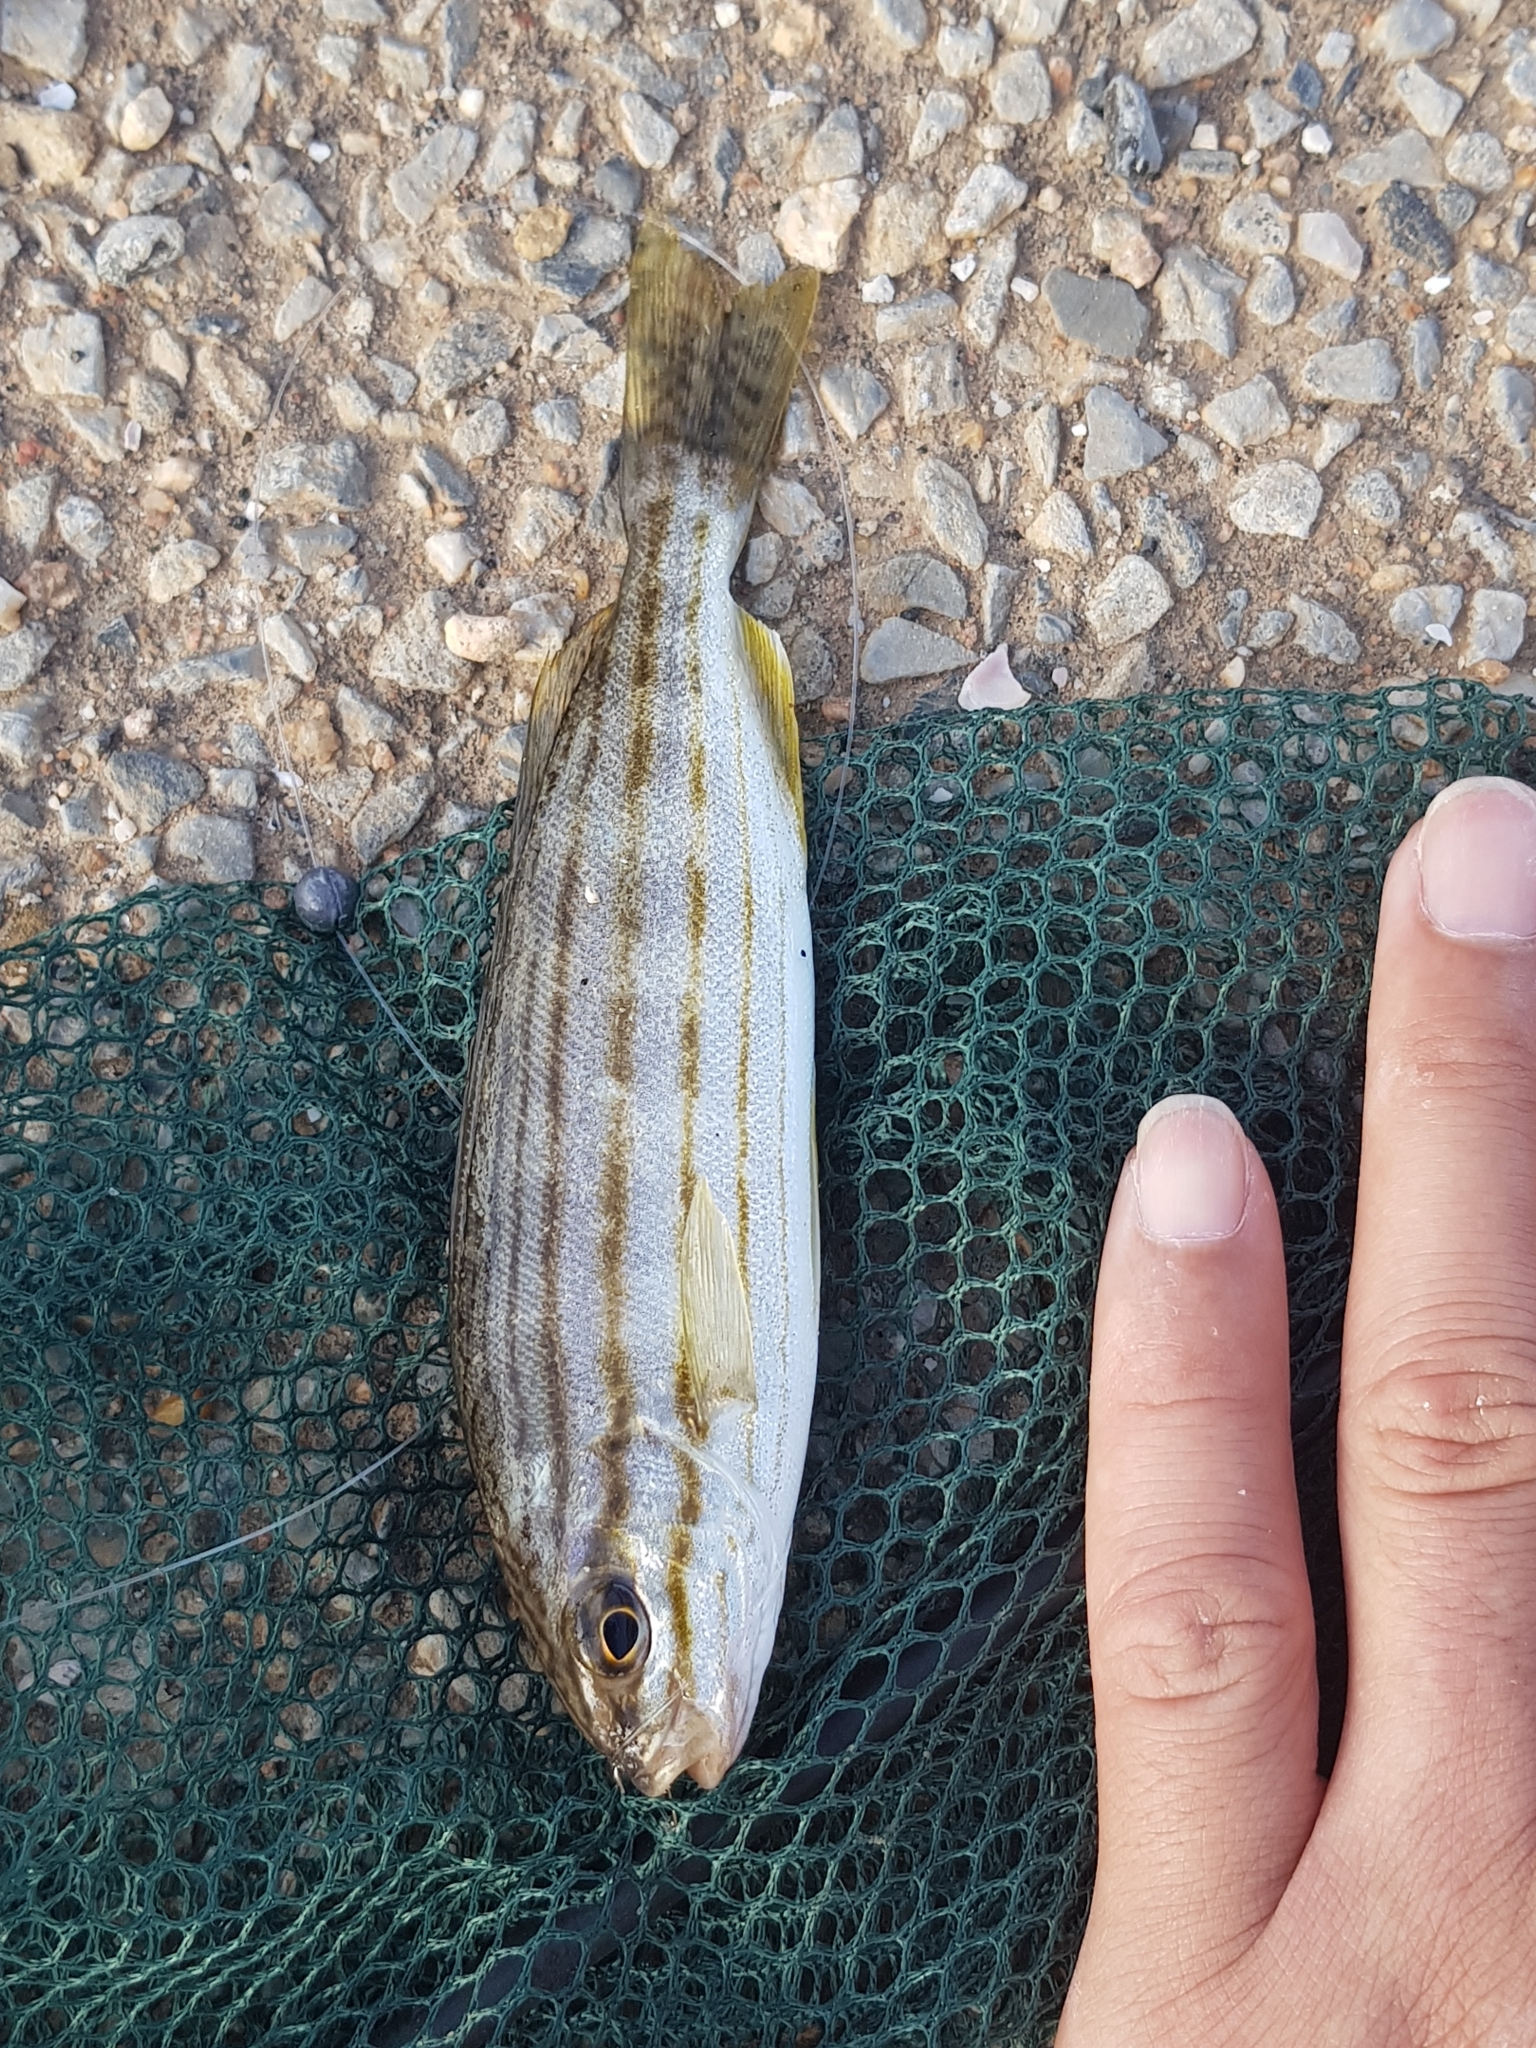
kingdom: Animalia
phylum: Chordata
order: Perciformes
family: Terapontidae
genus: Pelates
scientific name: Pelates octolineatus
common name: Eight-lined trumpeter
